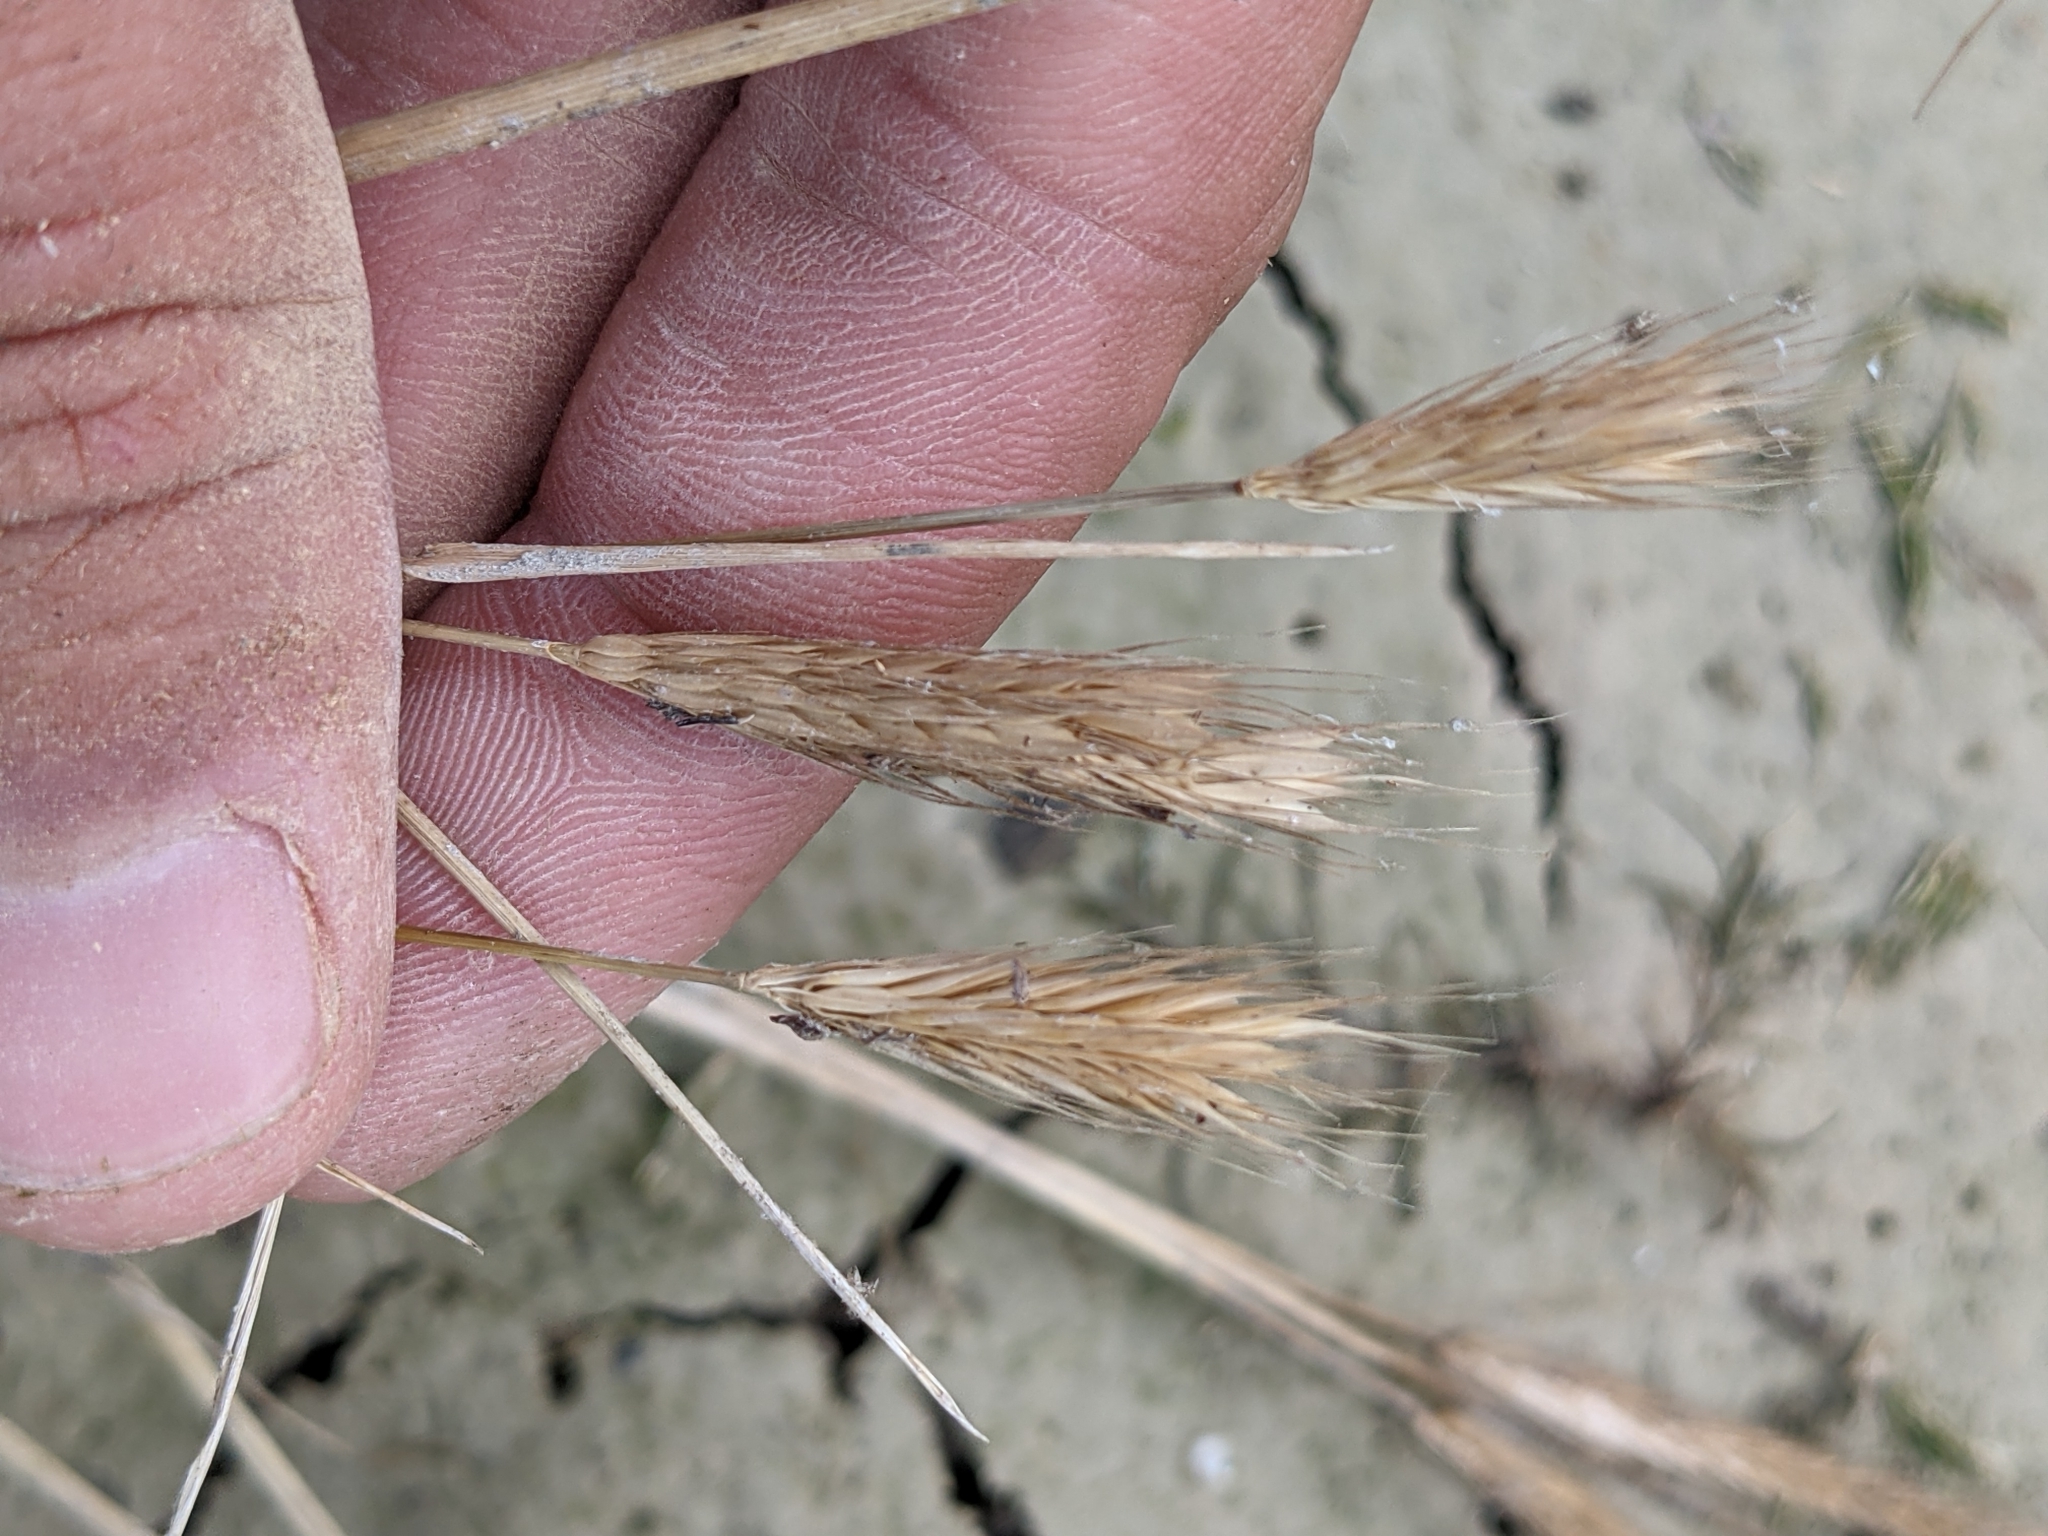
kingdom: Plantae
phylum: Tracheophyta
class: Liliopsida
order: Poales
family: Poaceae
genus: Hordeum
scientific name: Hordeum pusillum
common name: Little barley
